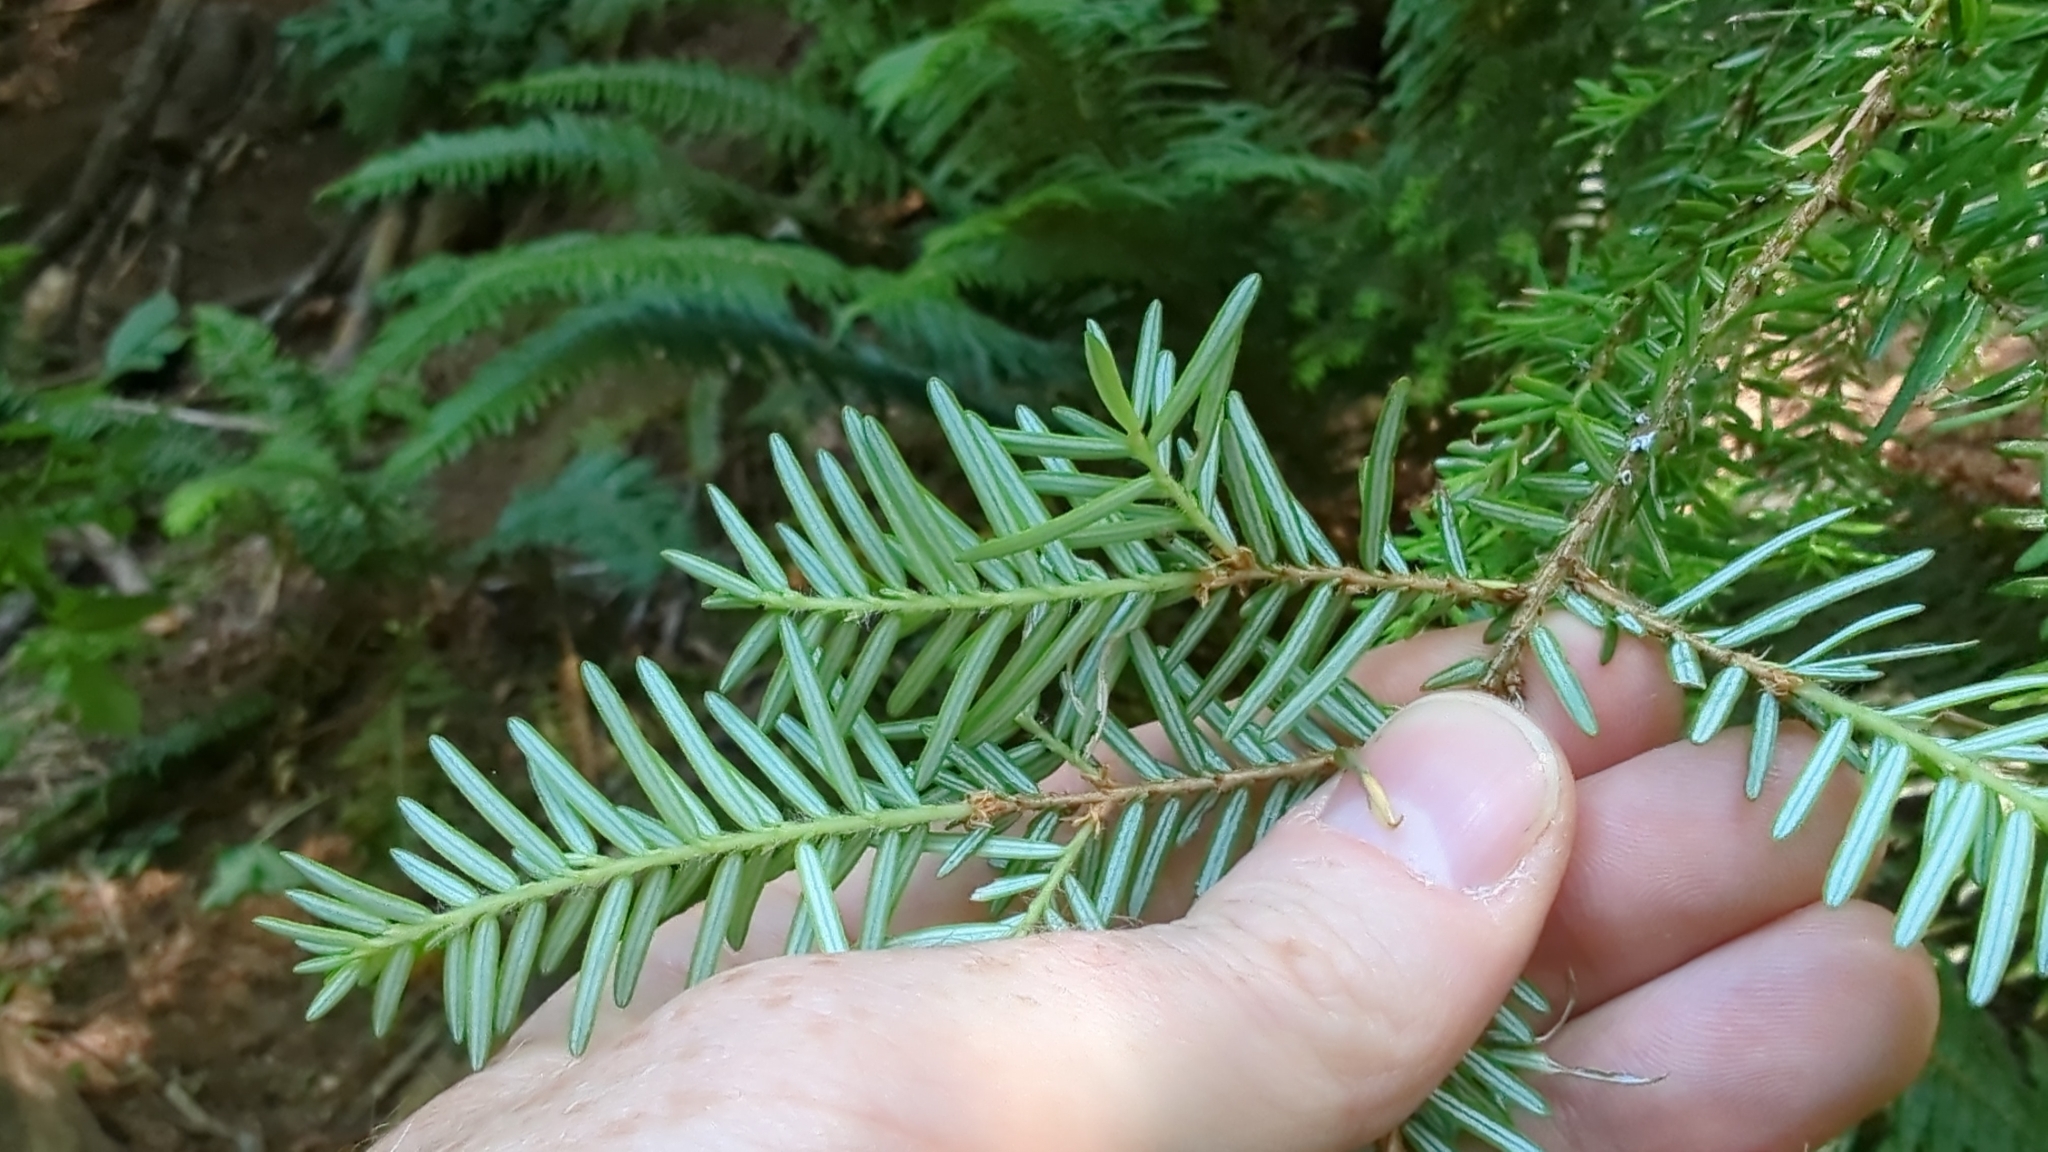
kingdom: Plantae
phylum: Tracheophyta
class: Pinopsida
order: Pinales
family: Pinaceae
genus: Tsuga
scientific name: Tsuga heterophylla
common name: Western hemlock
